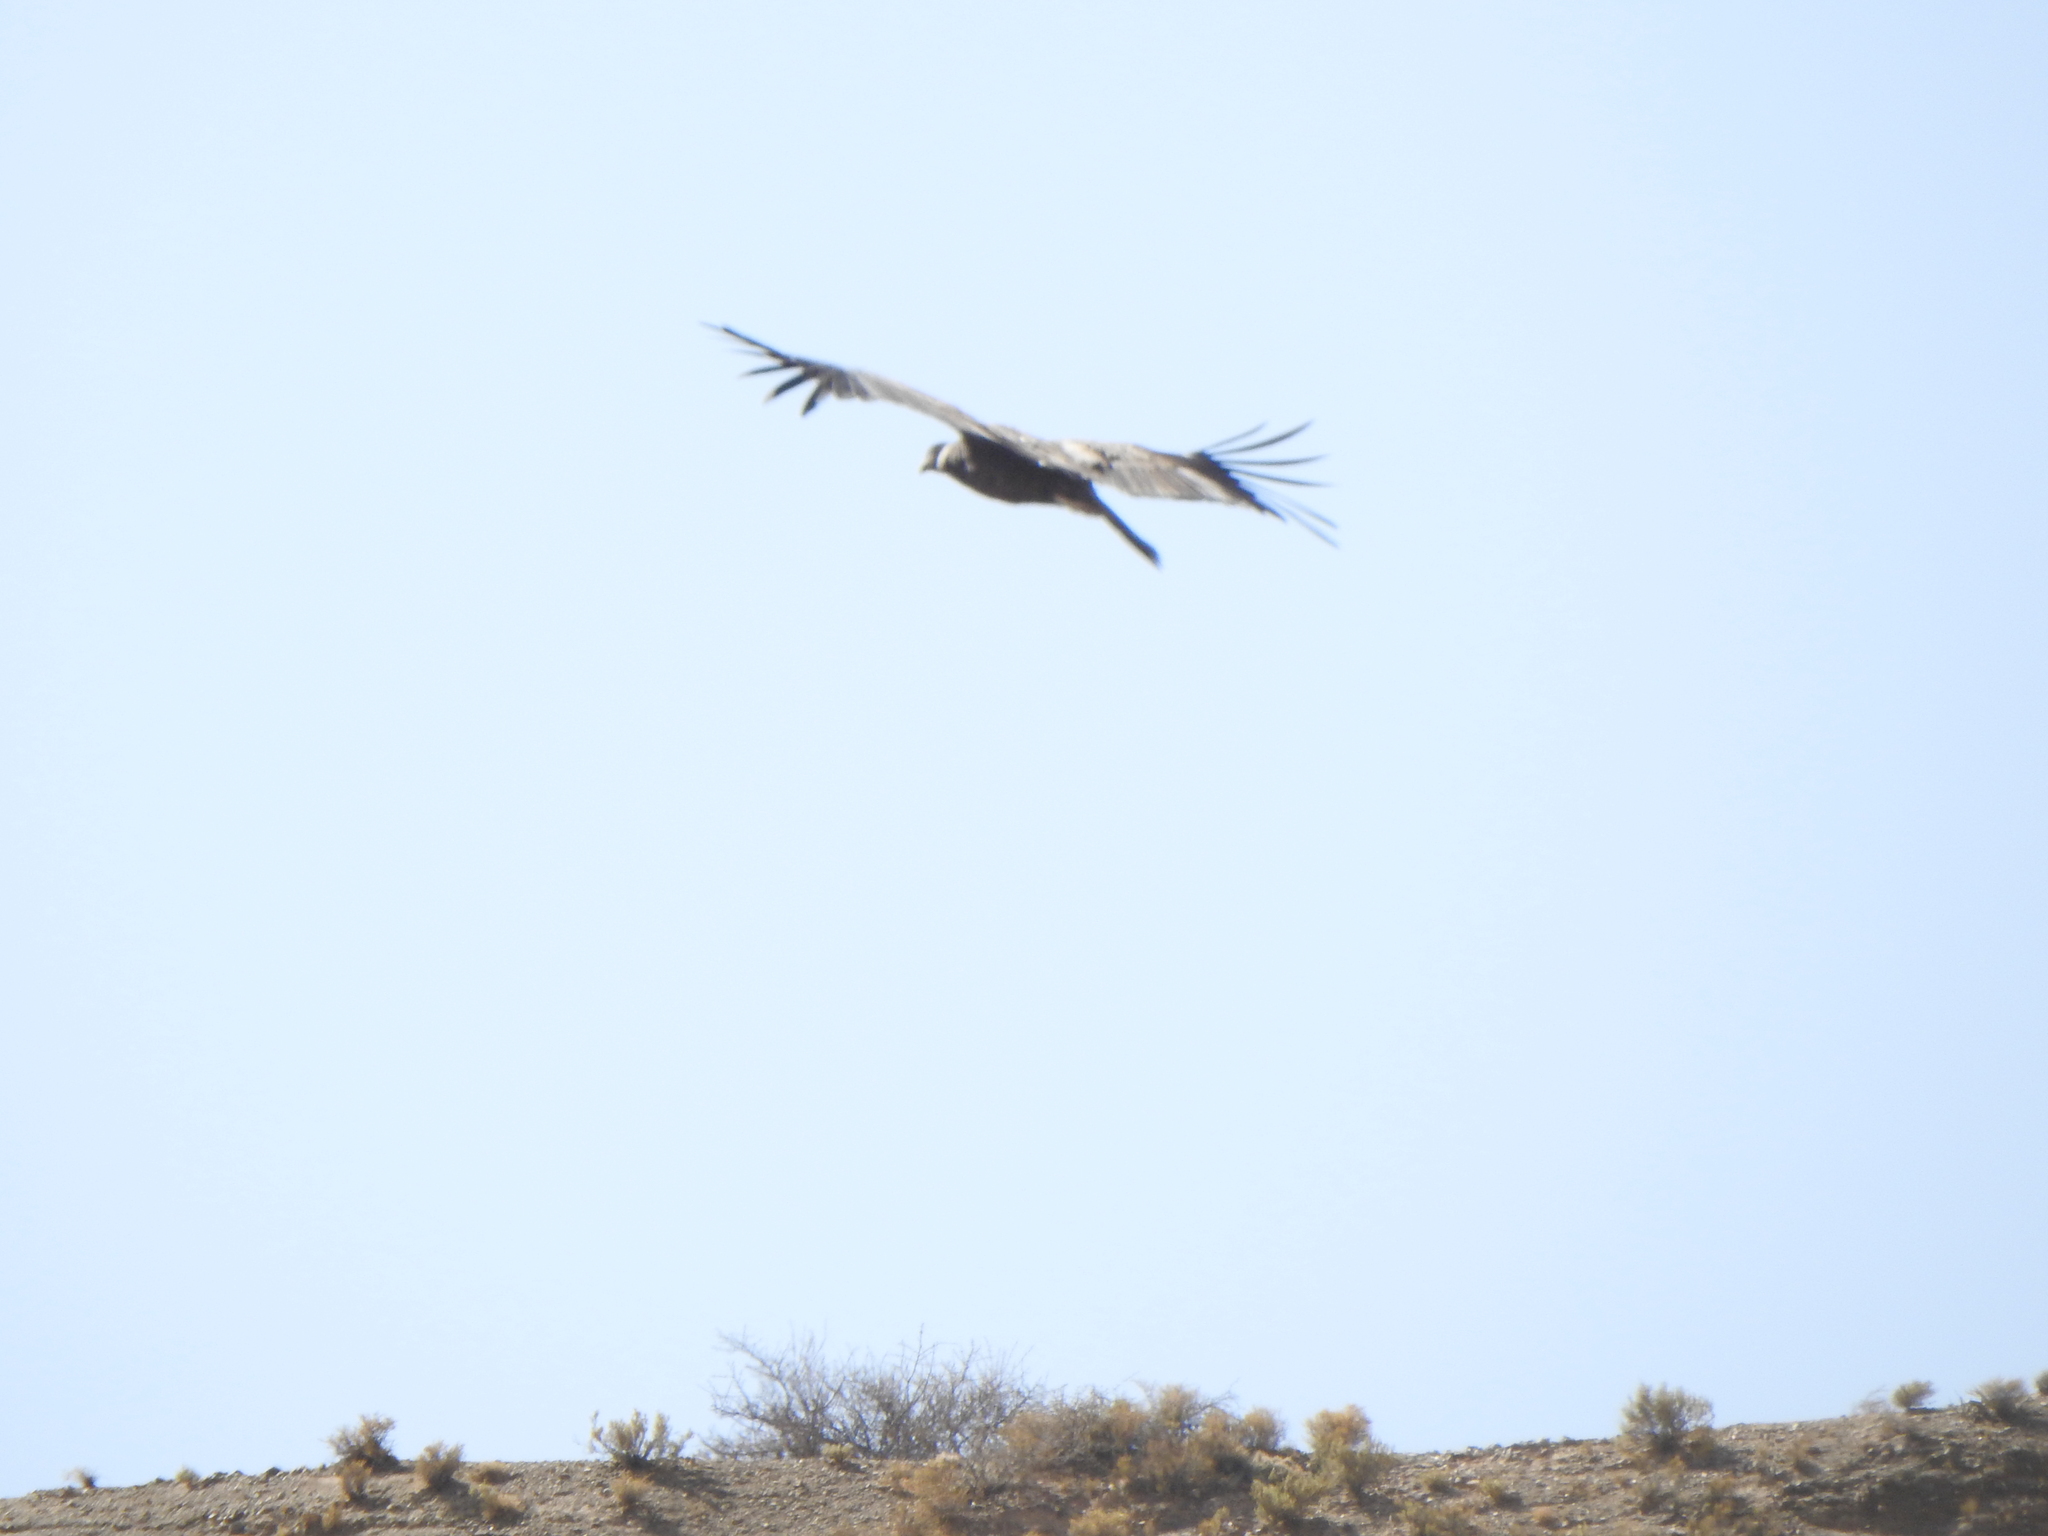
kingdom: Animalia
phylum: Chordata
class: Aves
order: Accipitriformes
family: Cathartidae
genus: Vultur
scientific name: Vultur gryphus
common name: Andean condor
